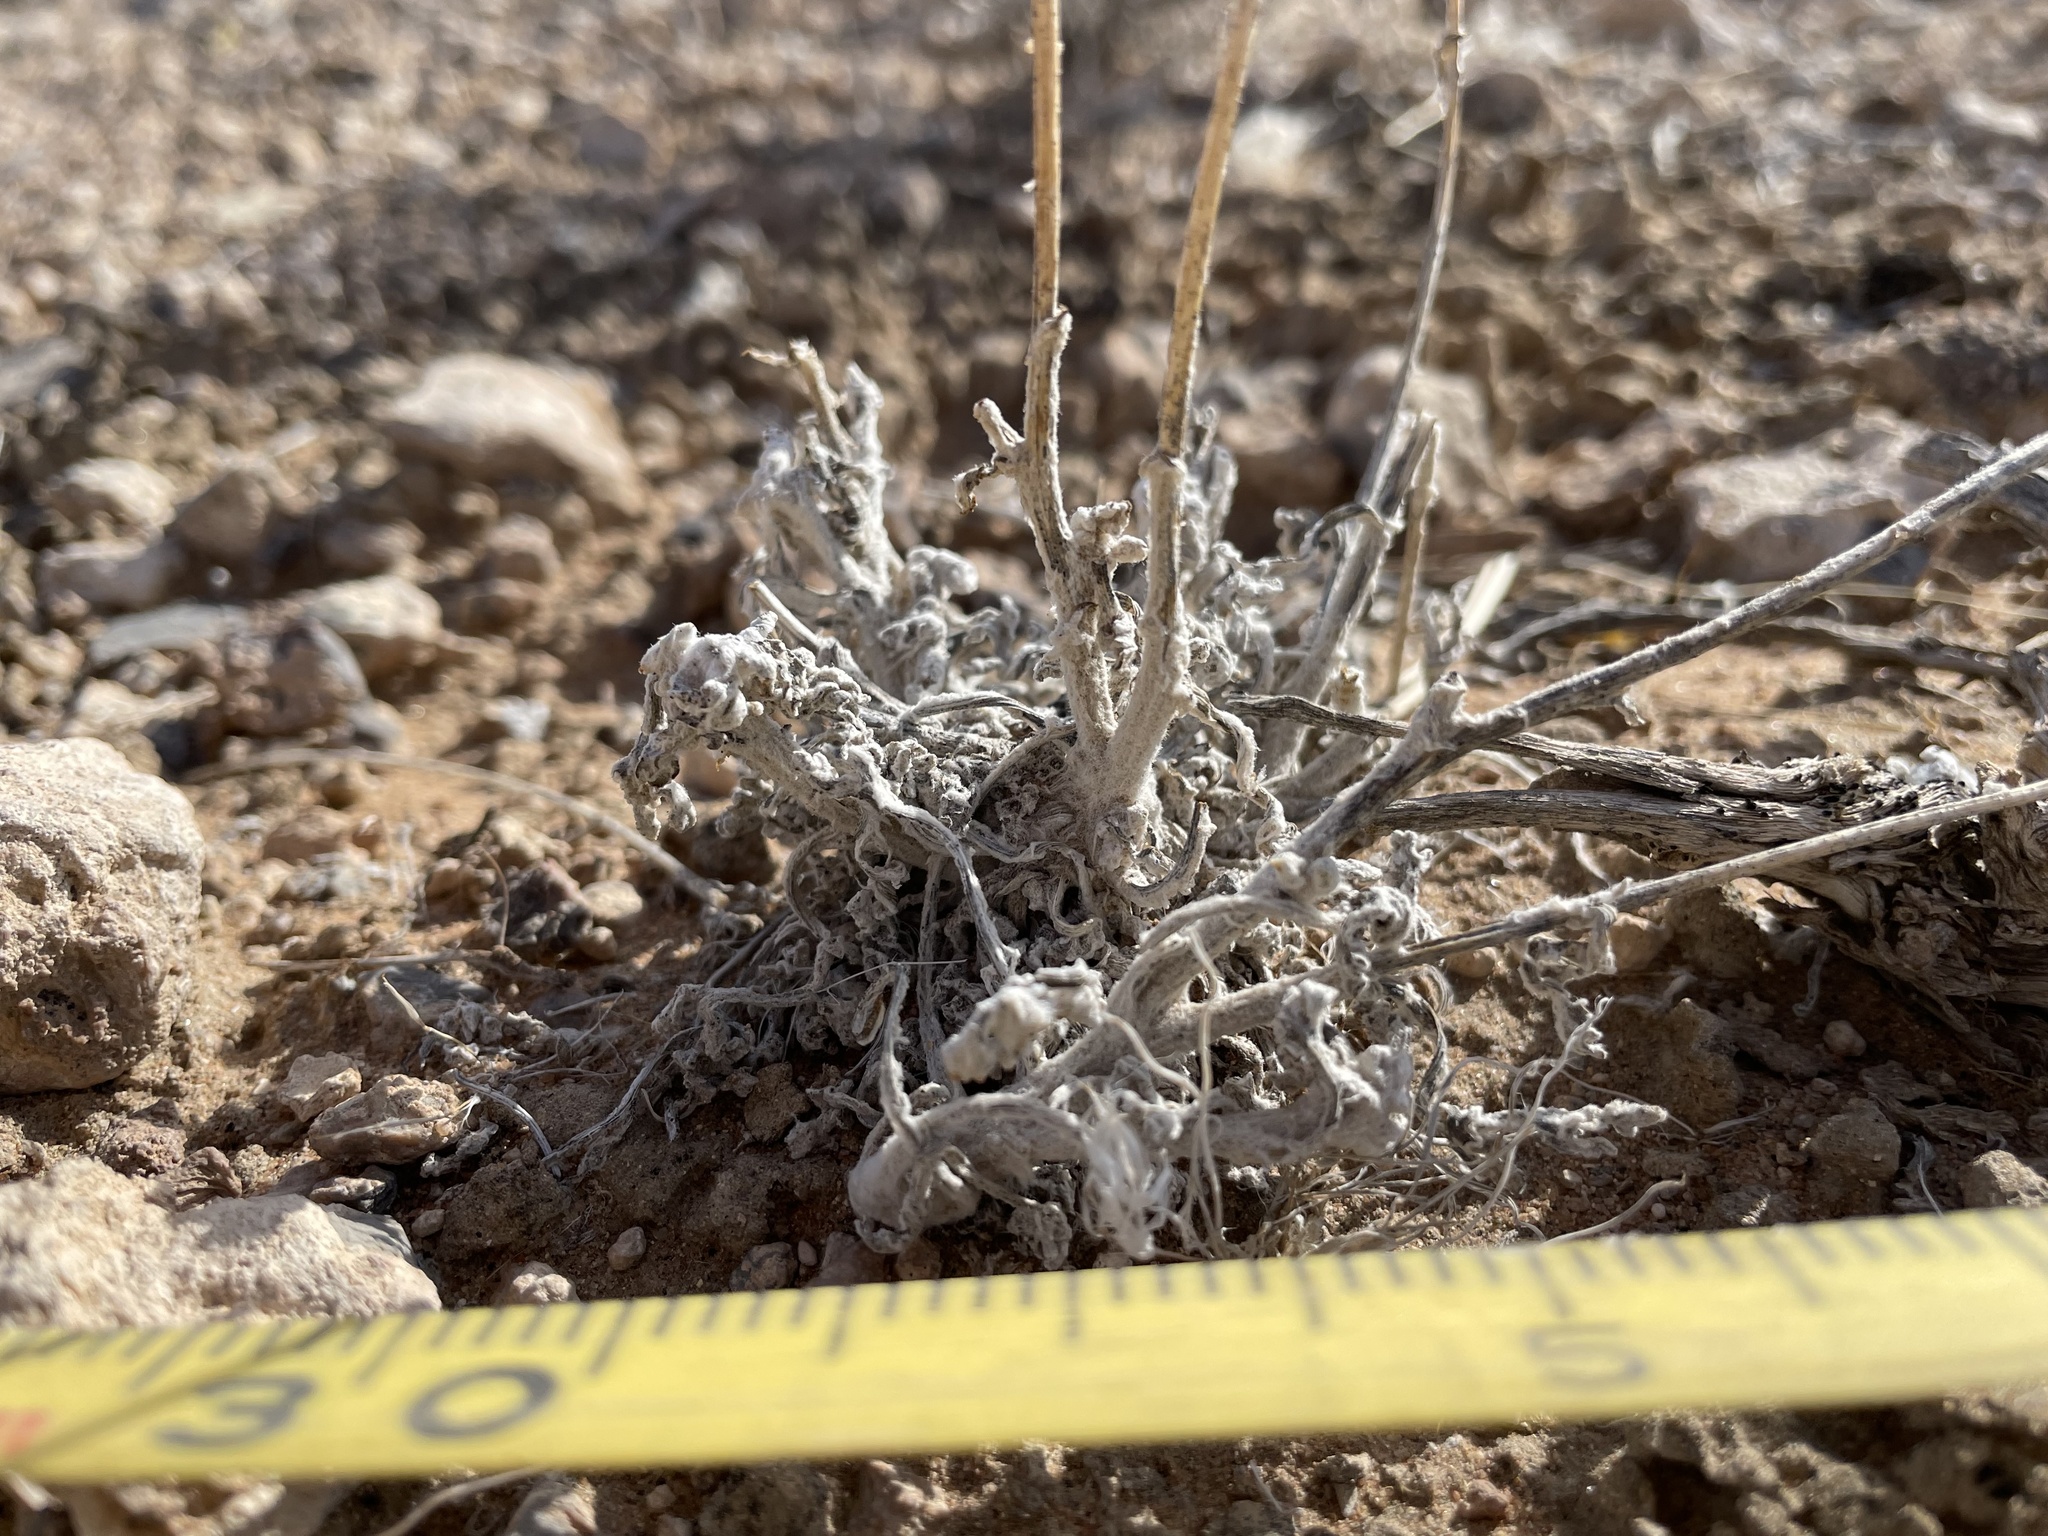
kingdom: Plantae
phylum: Tracheophyta
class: Magnoliopsida
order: Asterales
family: Asteraceae
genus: Baileya
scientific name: Baileya multiradiata
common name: Desert-marigold
